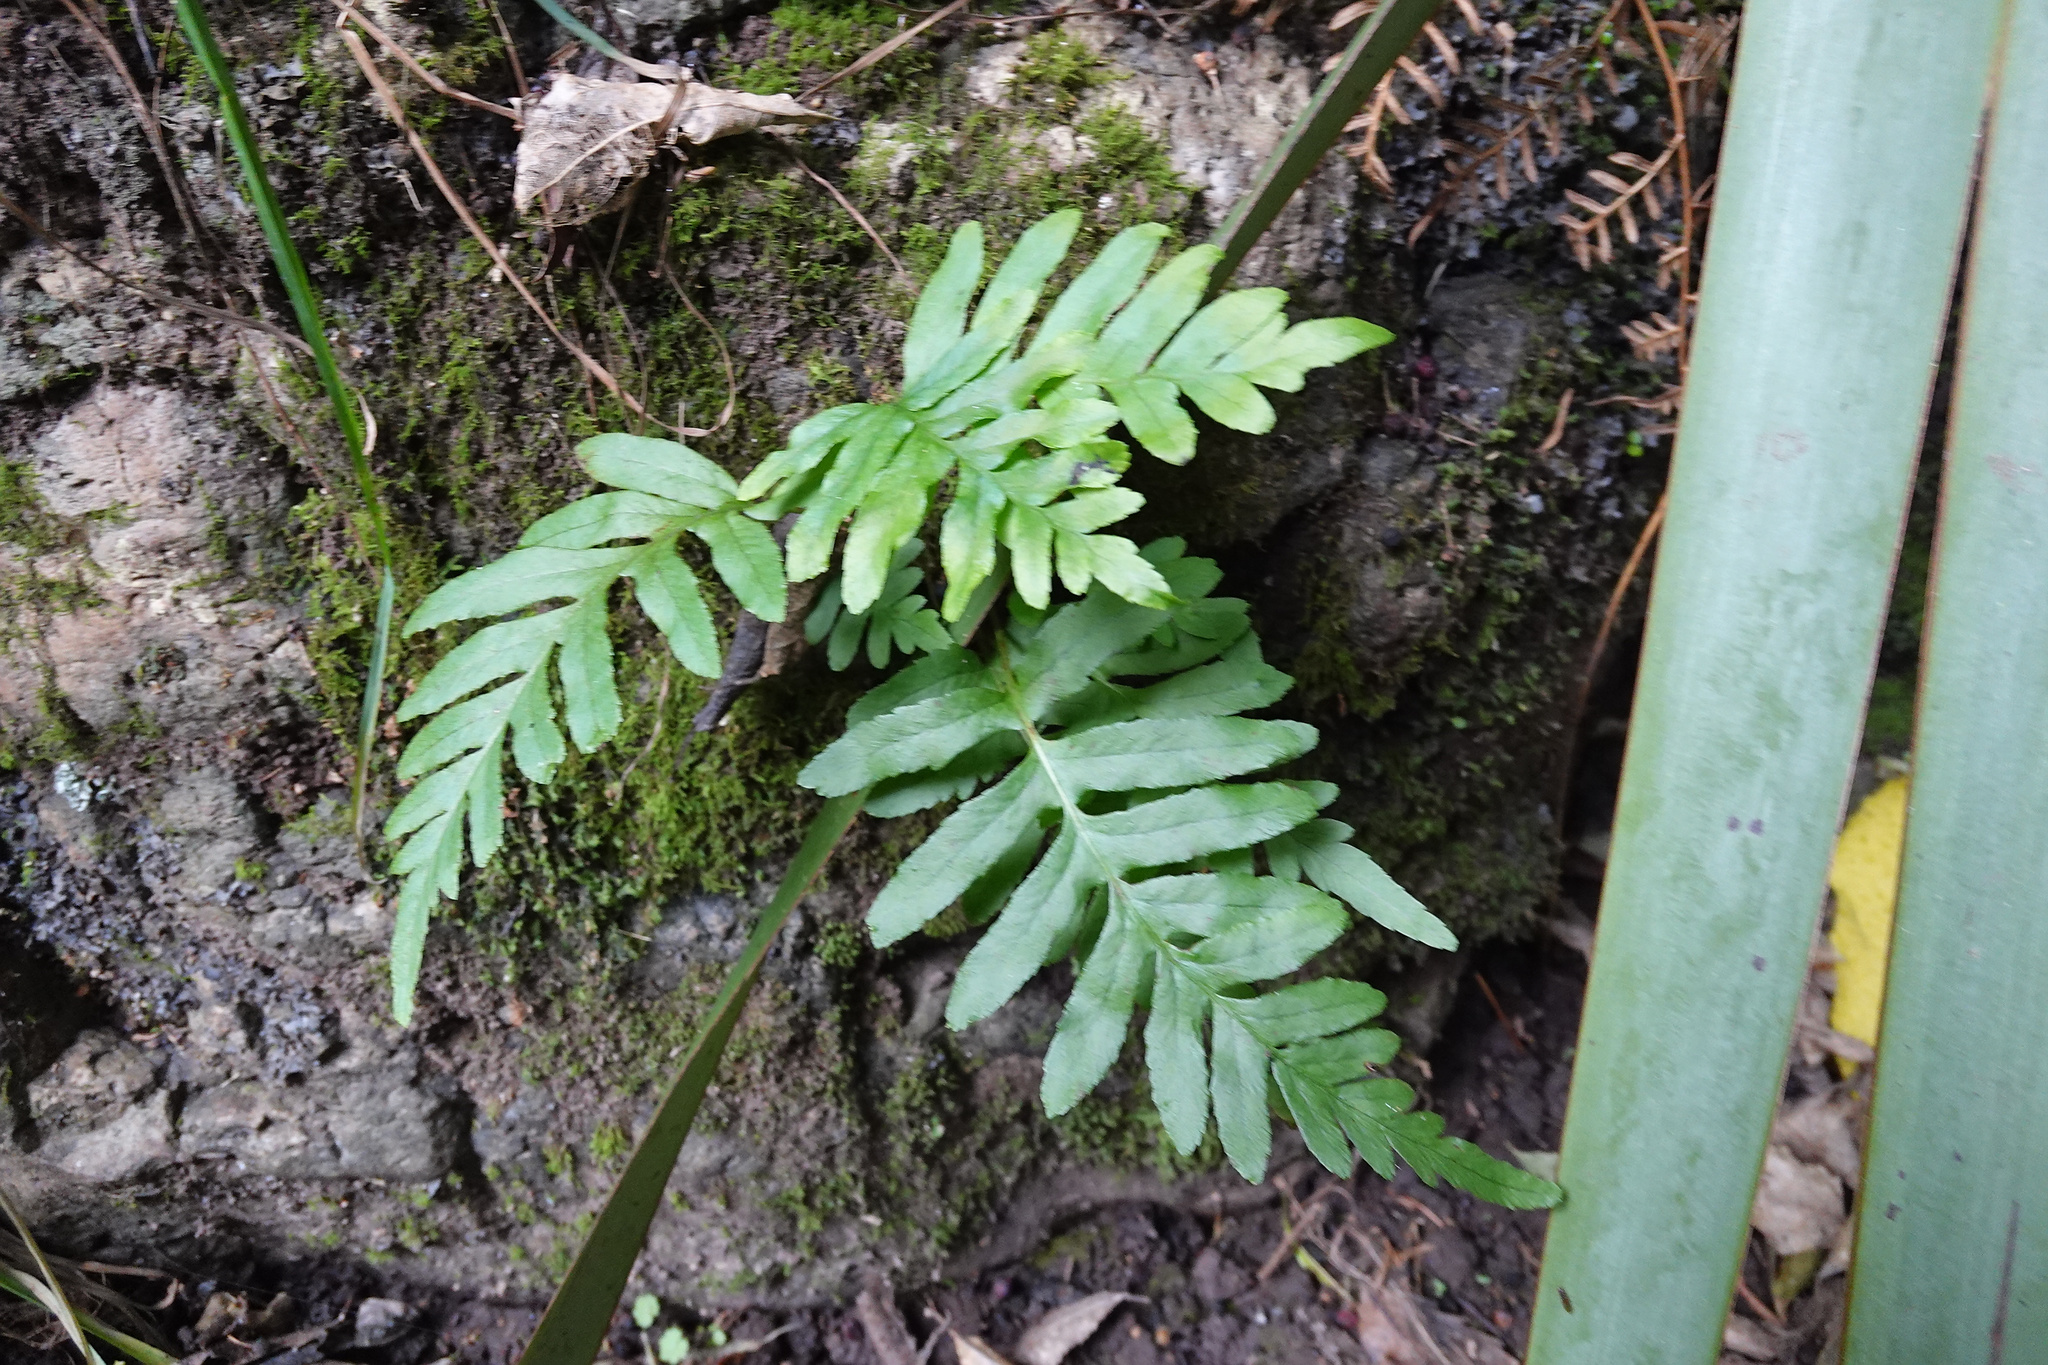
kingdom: Plantae
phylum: Tracheophyta
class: Polypodiopsida
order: Polypodiales
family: Polypodiaceae
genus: Polypodium
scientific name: Polypodium vulgare
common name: Common polypody
